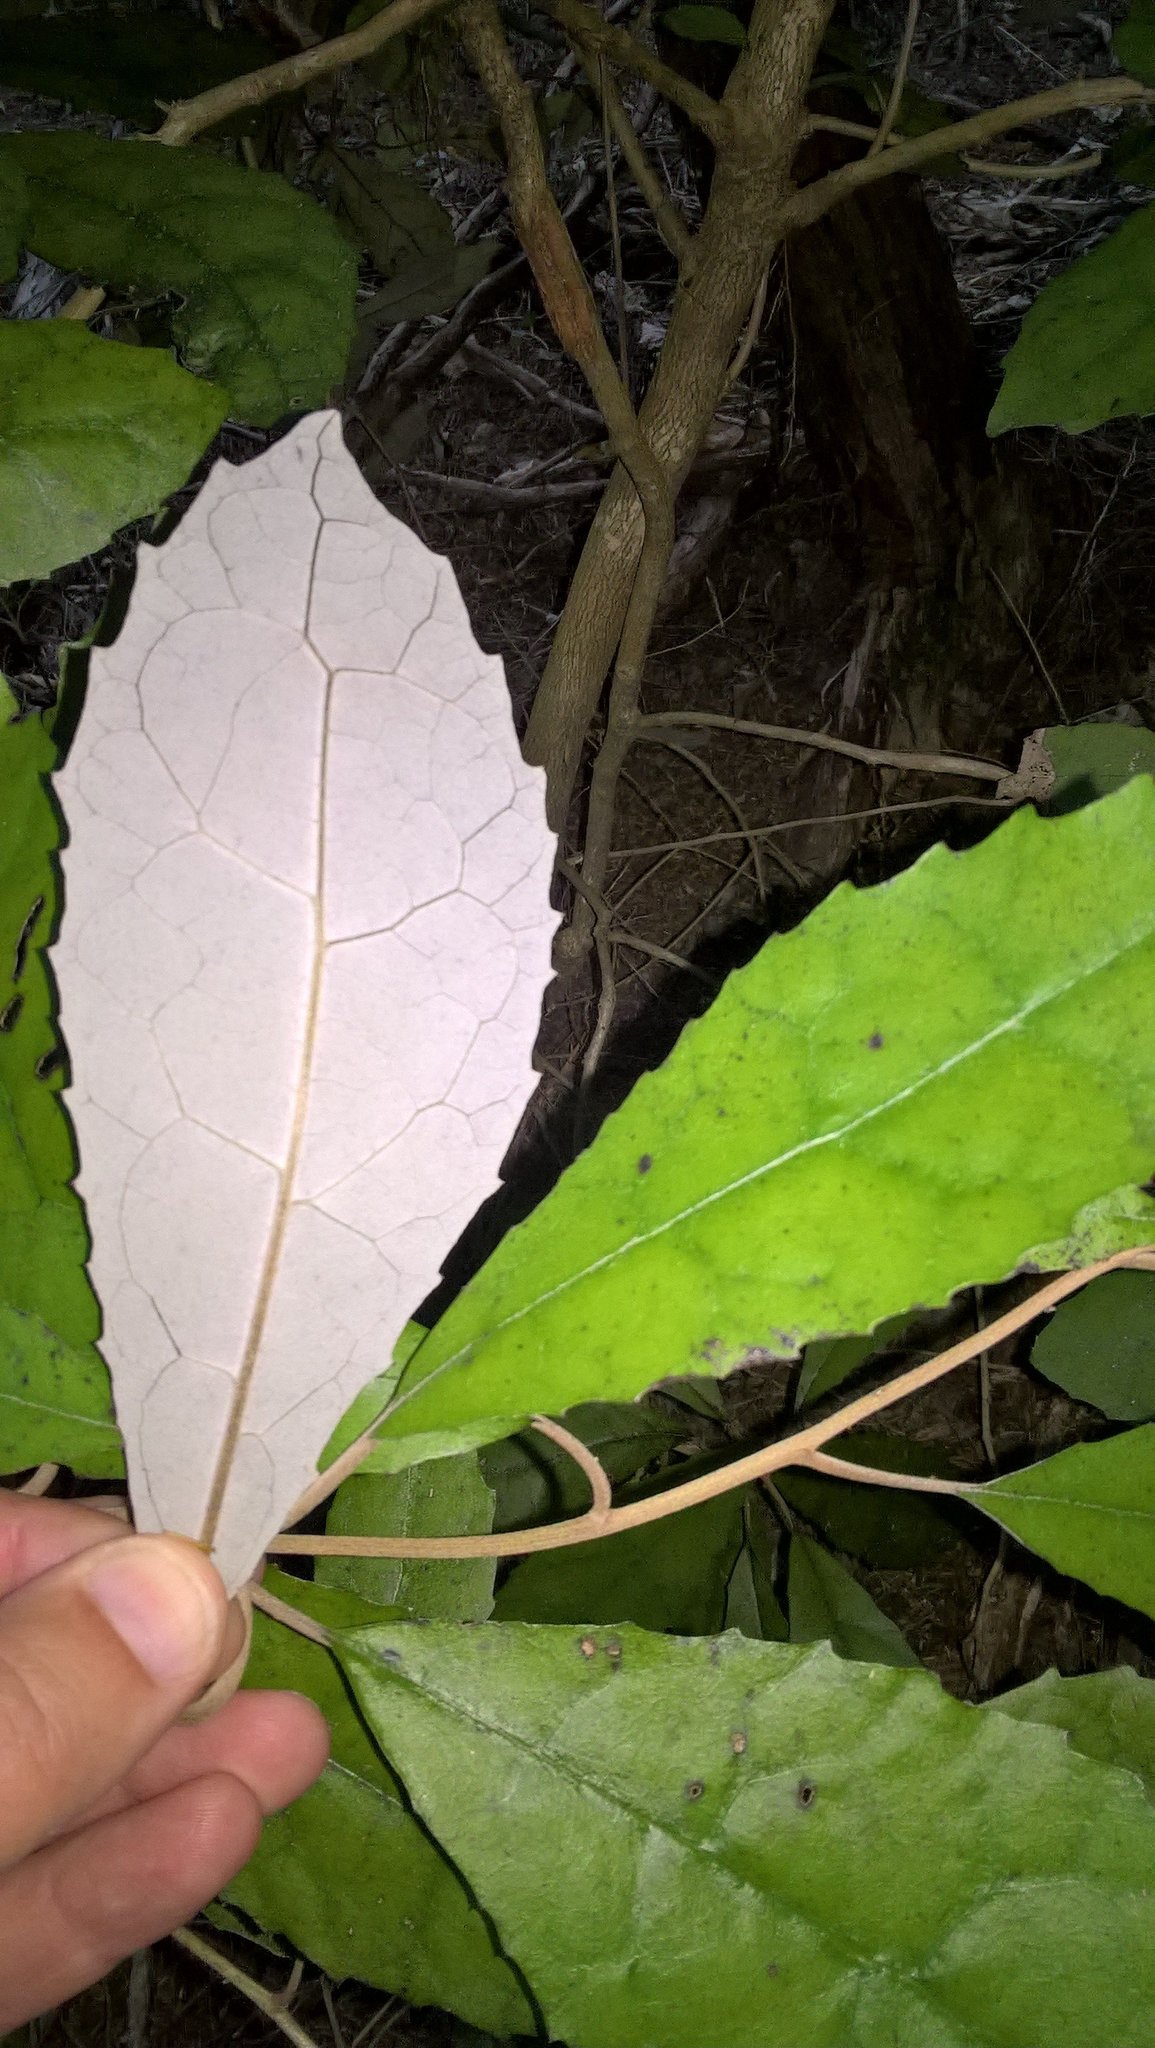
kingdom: Plantae
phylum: Tracheophyta
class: Magnoliopsida
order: Asterales
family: Asteraceae
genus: Olearia
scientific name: Olearia rani
